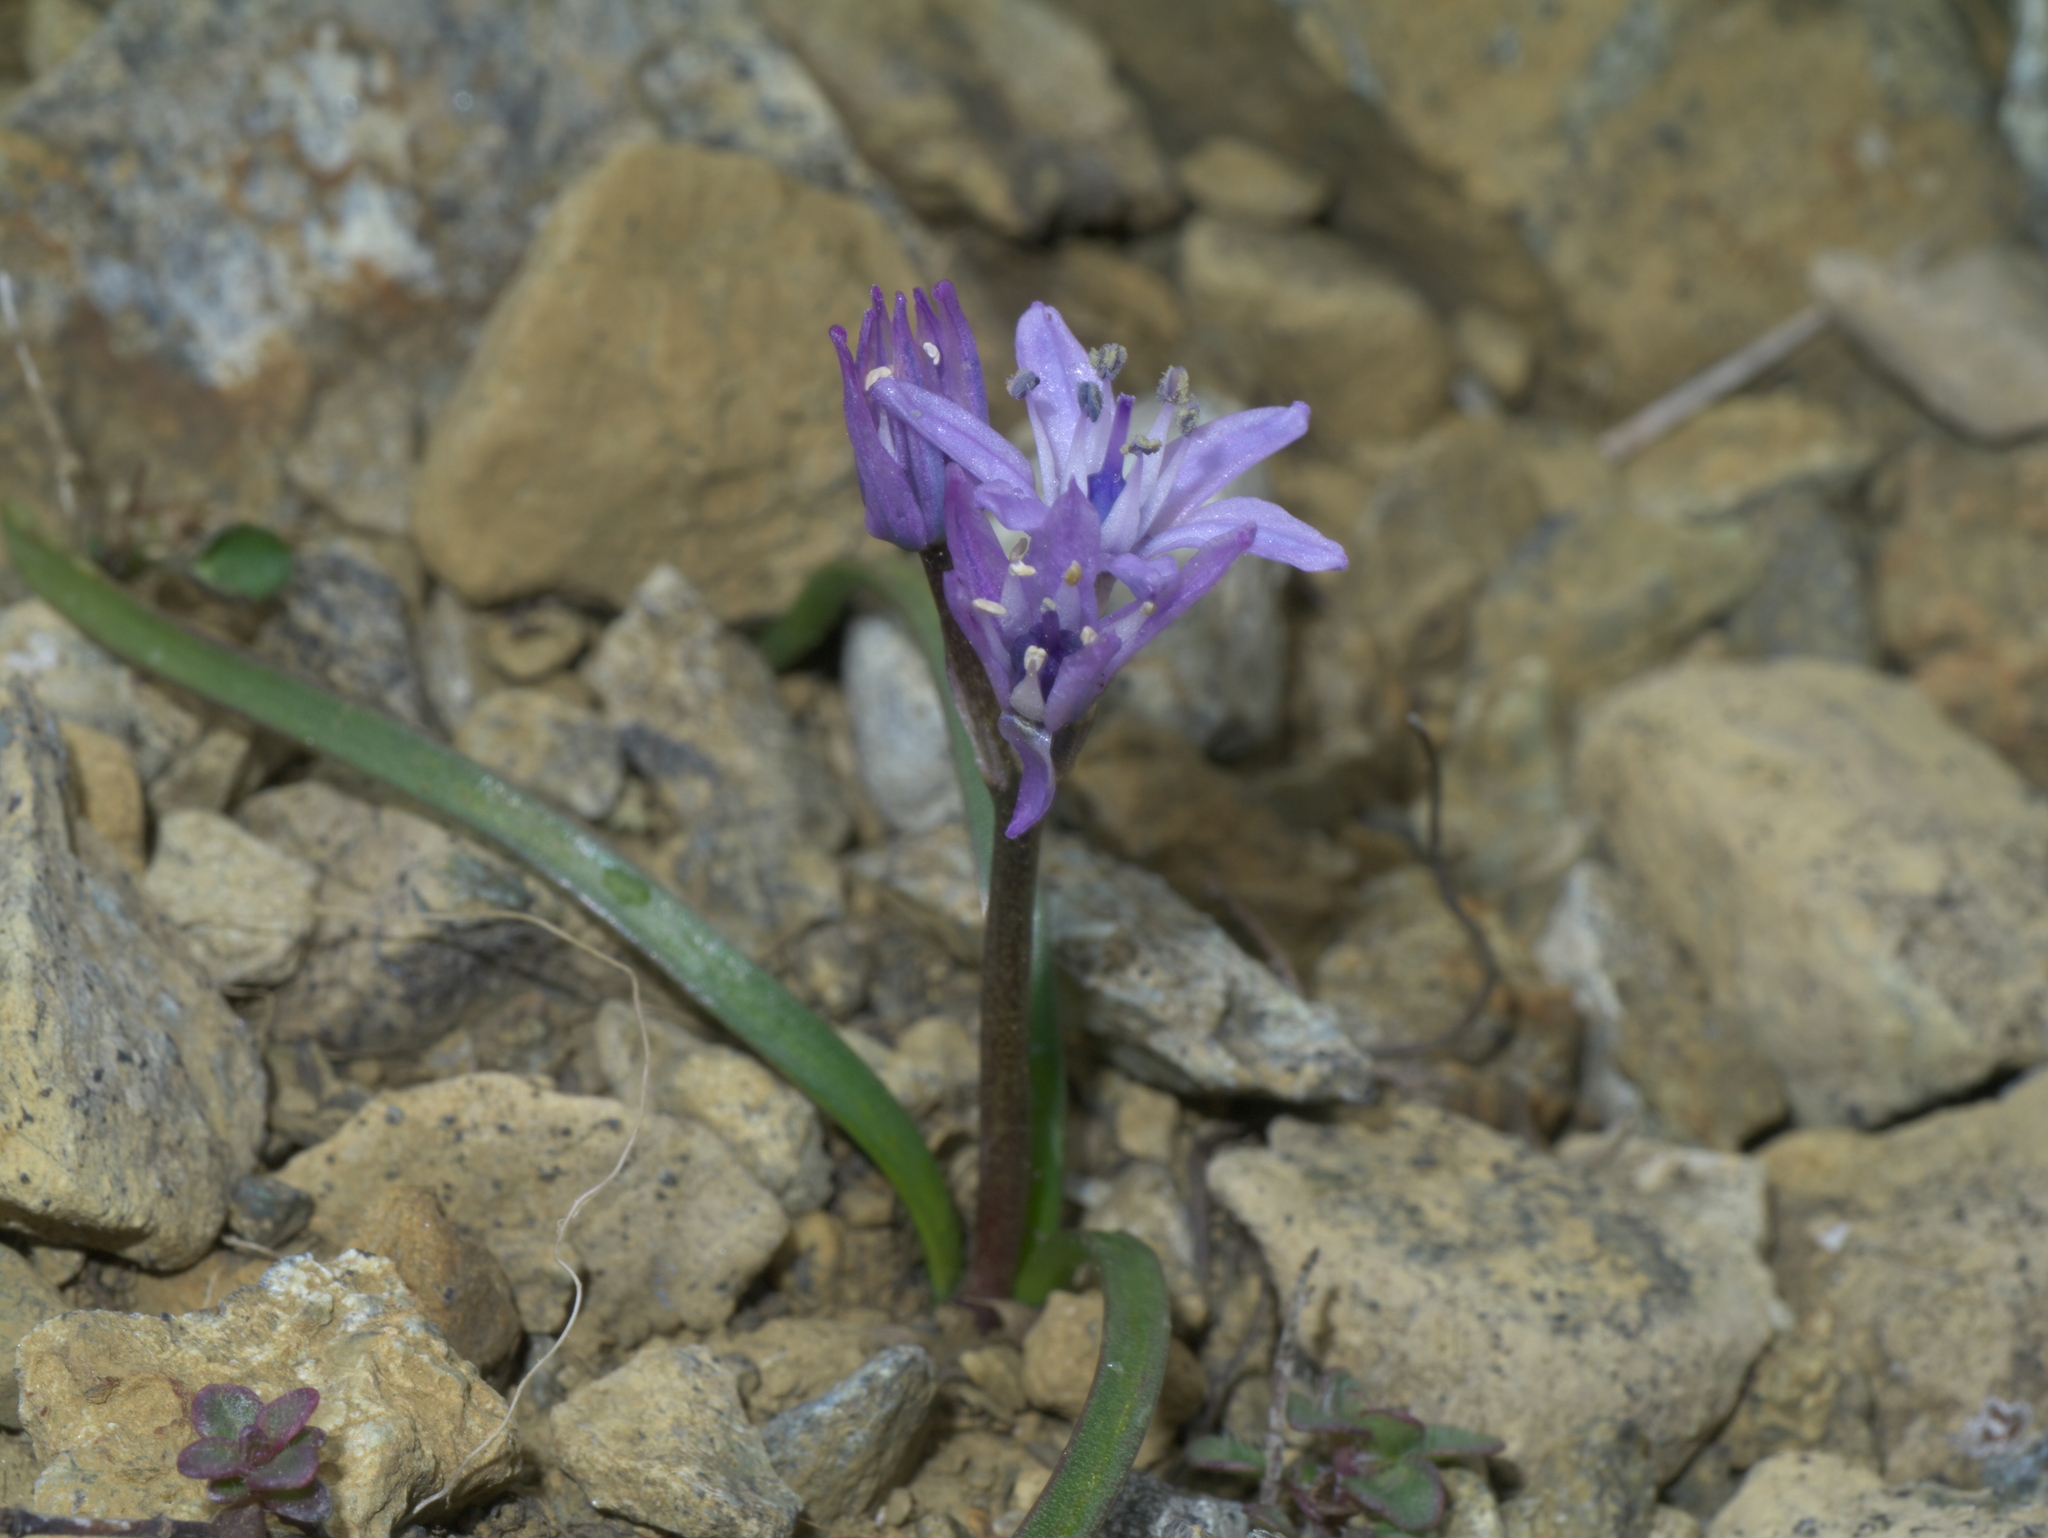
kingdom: Plantae
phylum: Tracheophyta
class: Liliopsida
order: Asparagales
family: Asparagaceae
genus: Scilla
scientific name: Scilla verna
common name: Spring squill
